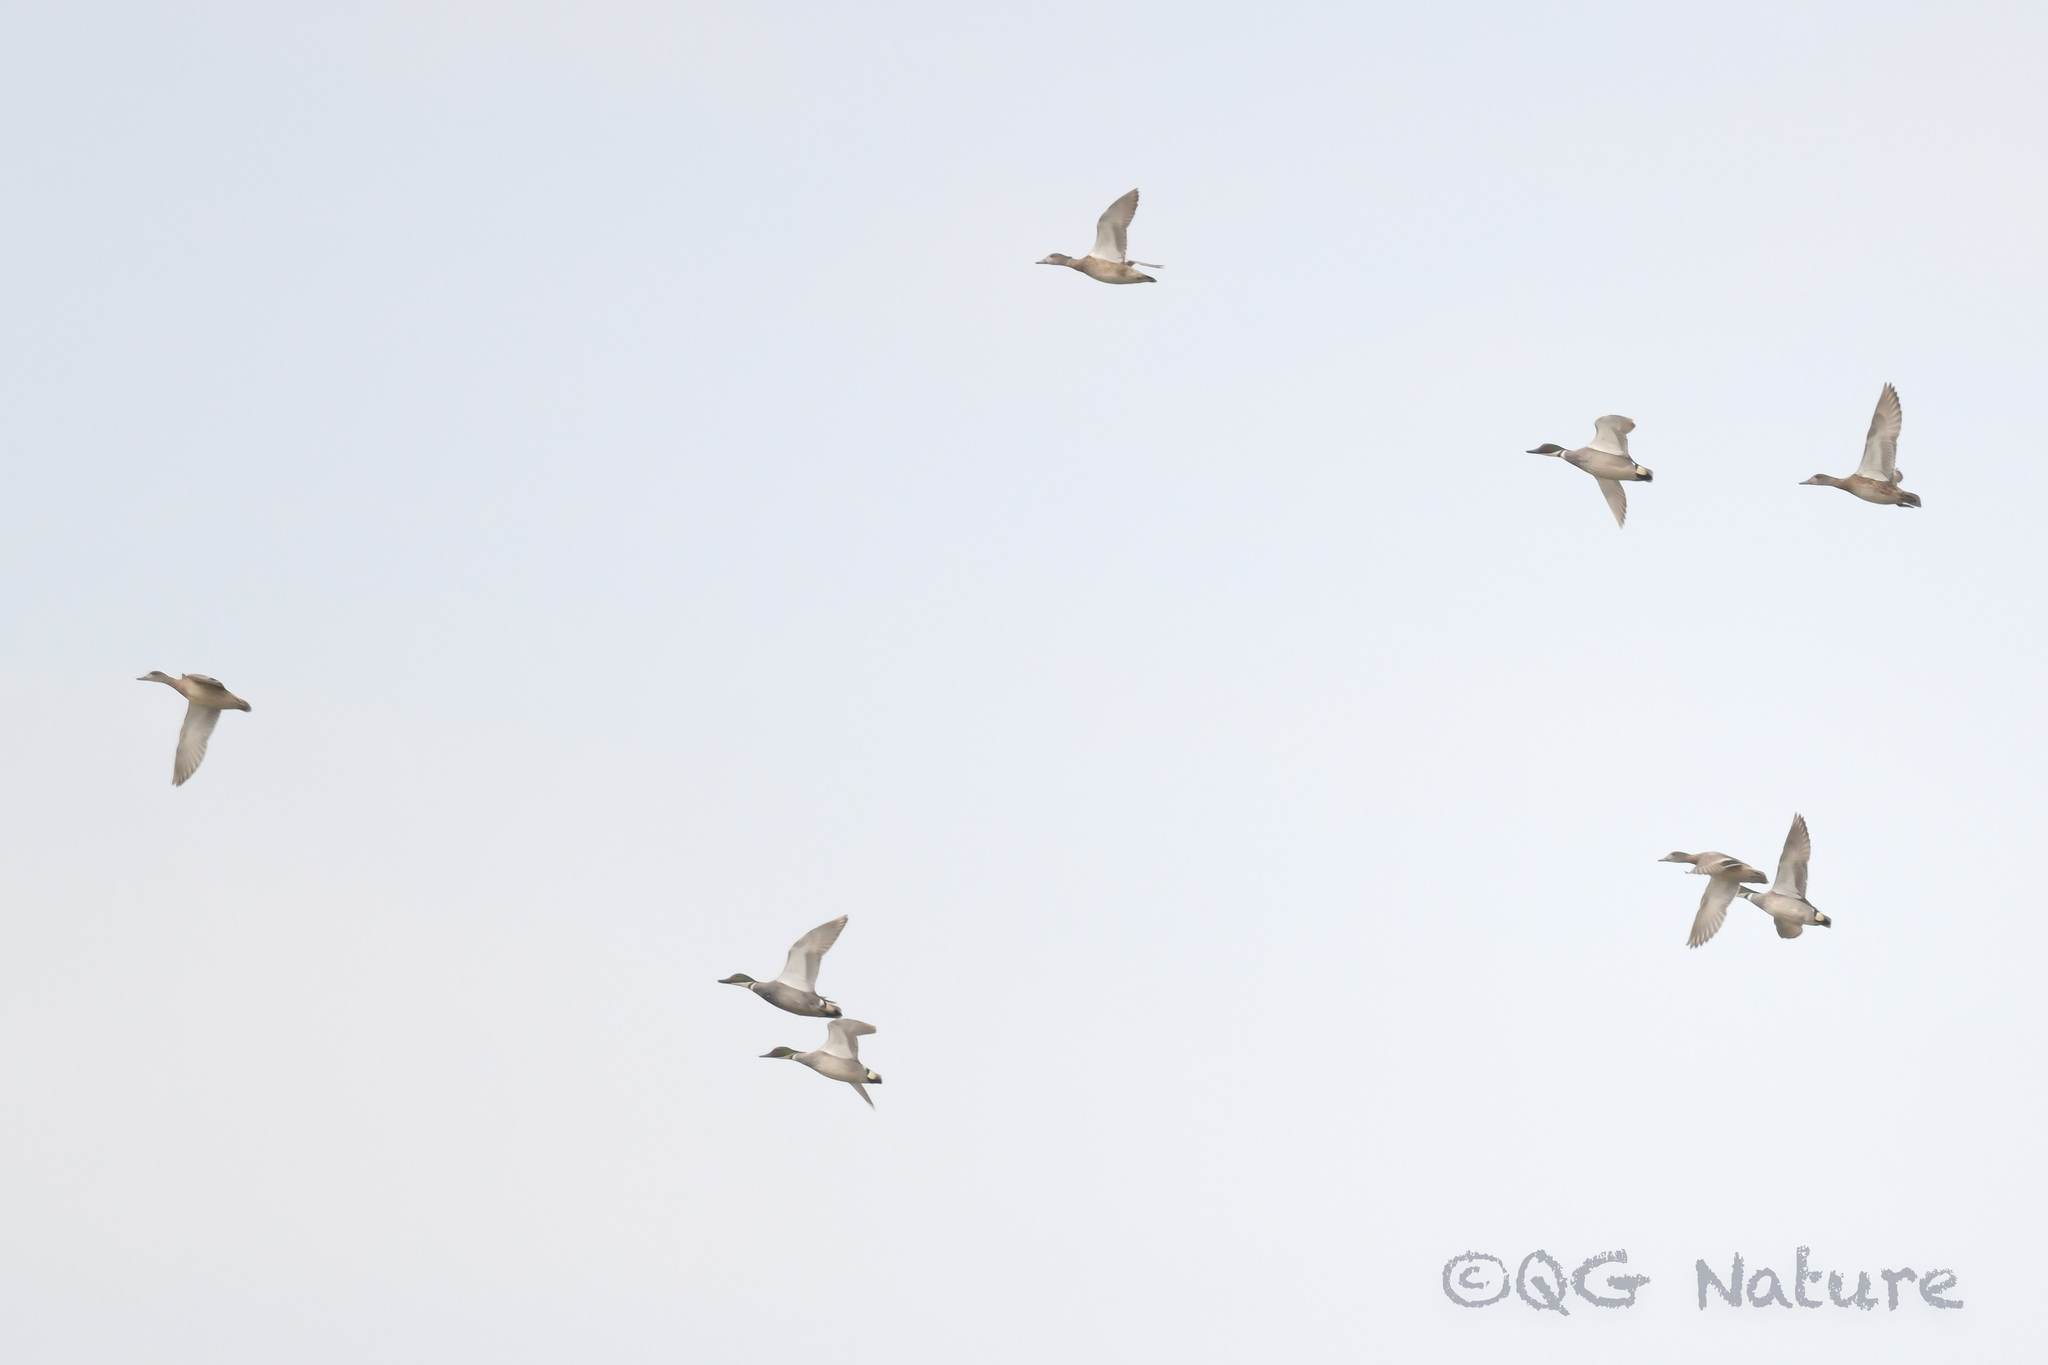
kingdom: Animalia
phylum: Chordata
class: Aves
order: Anseriformes
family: Anatidae
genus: Mareca
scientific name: Mareca falcata
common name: Falcated duck
